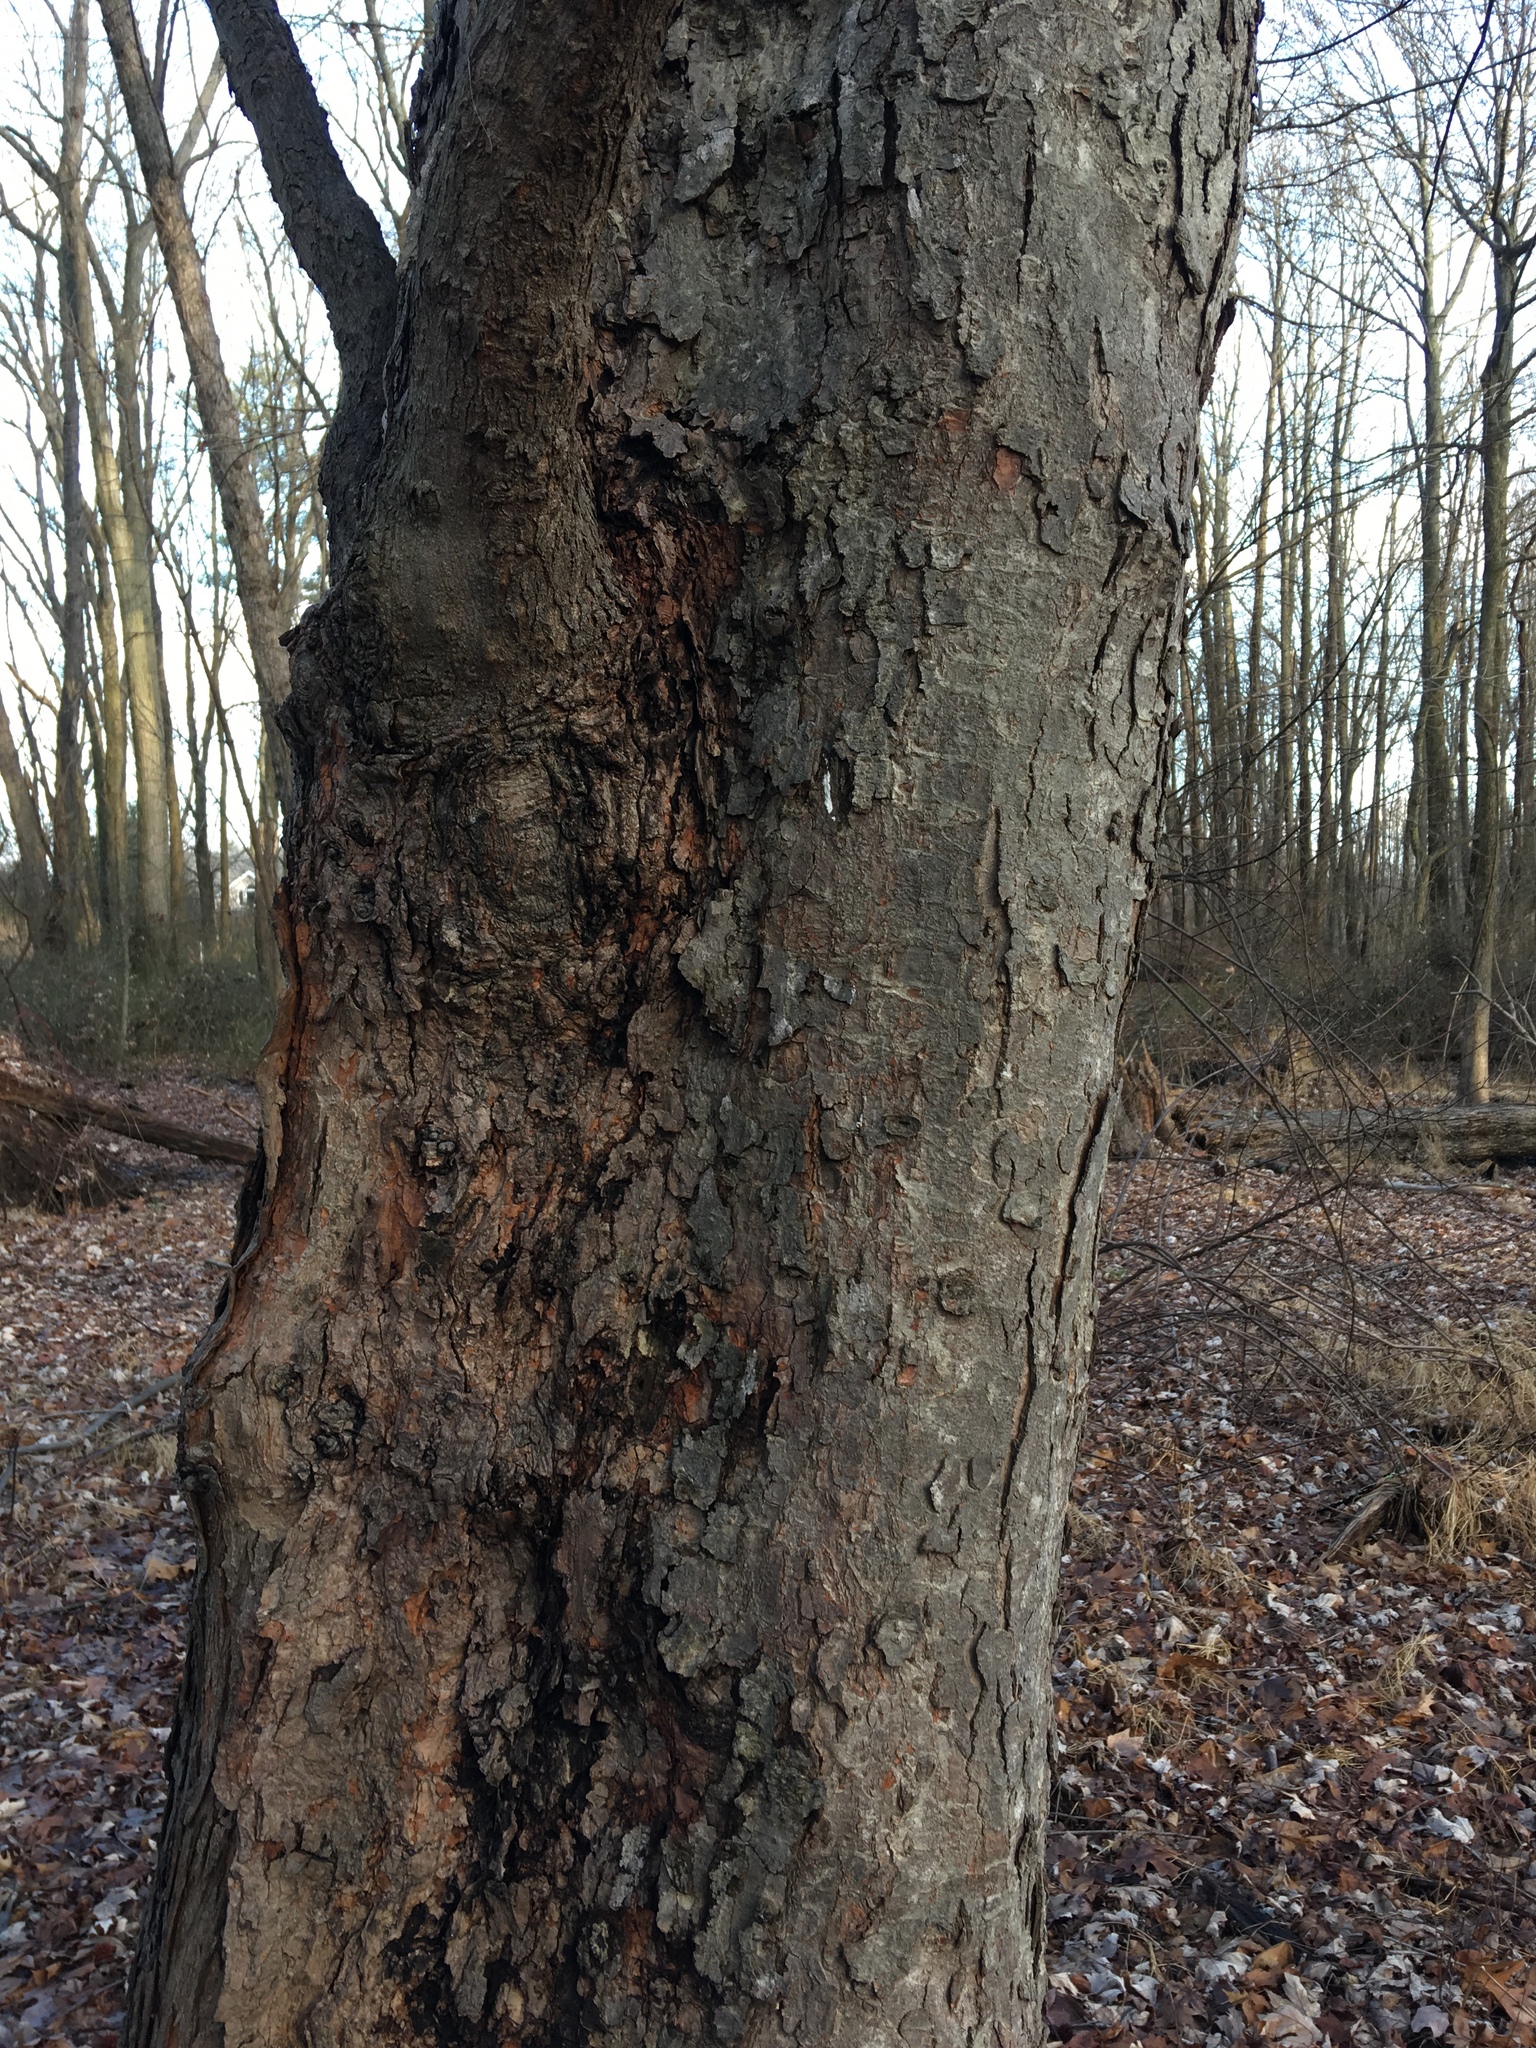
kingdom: Plantae
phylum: Tracheophyta
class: Magnoliopsida
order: Sapindales
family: Sapindaceae
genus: Acer
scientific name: Acer saccharinum
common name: Silver maple
